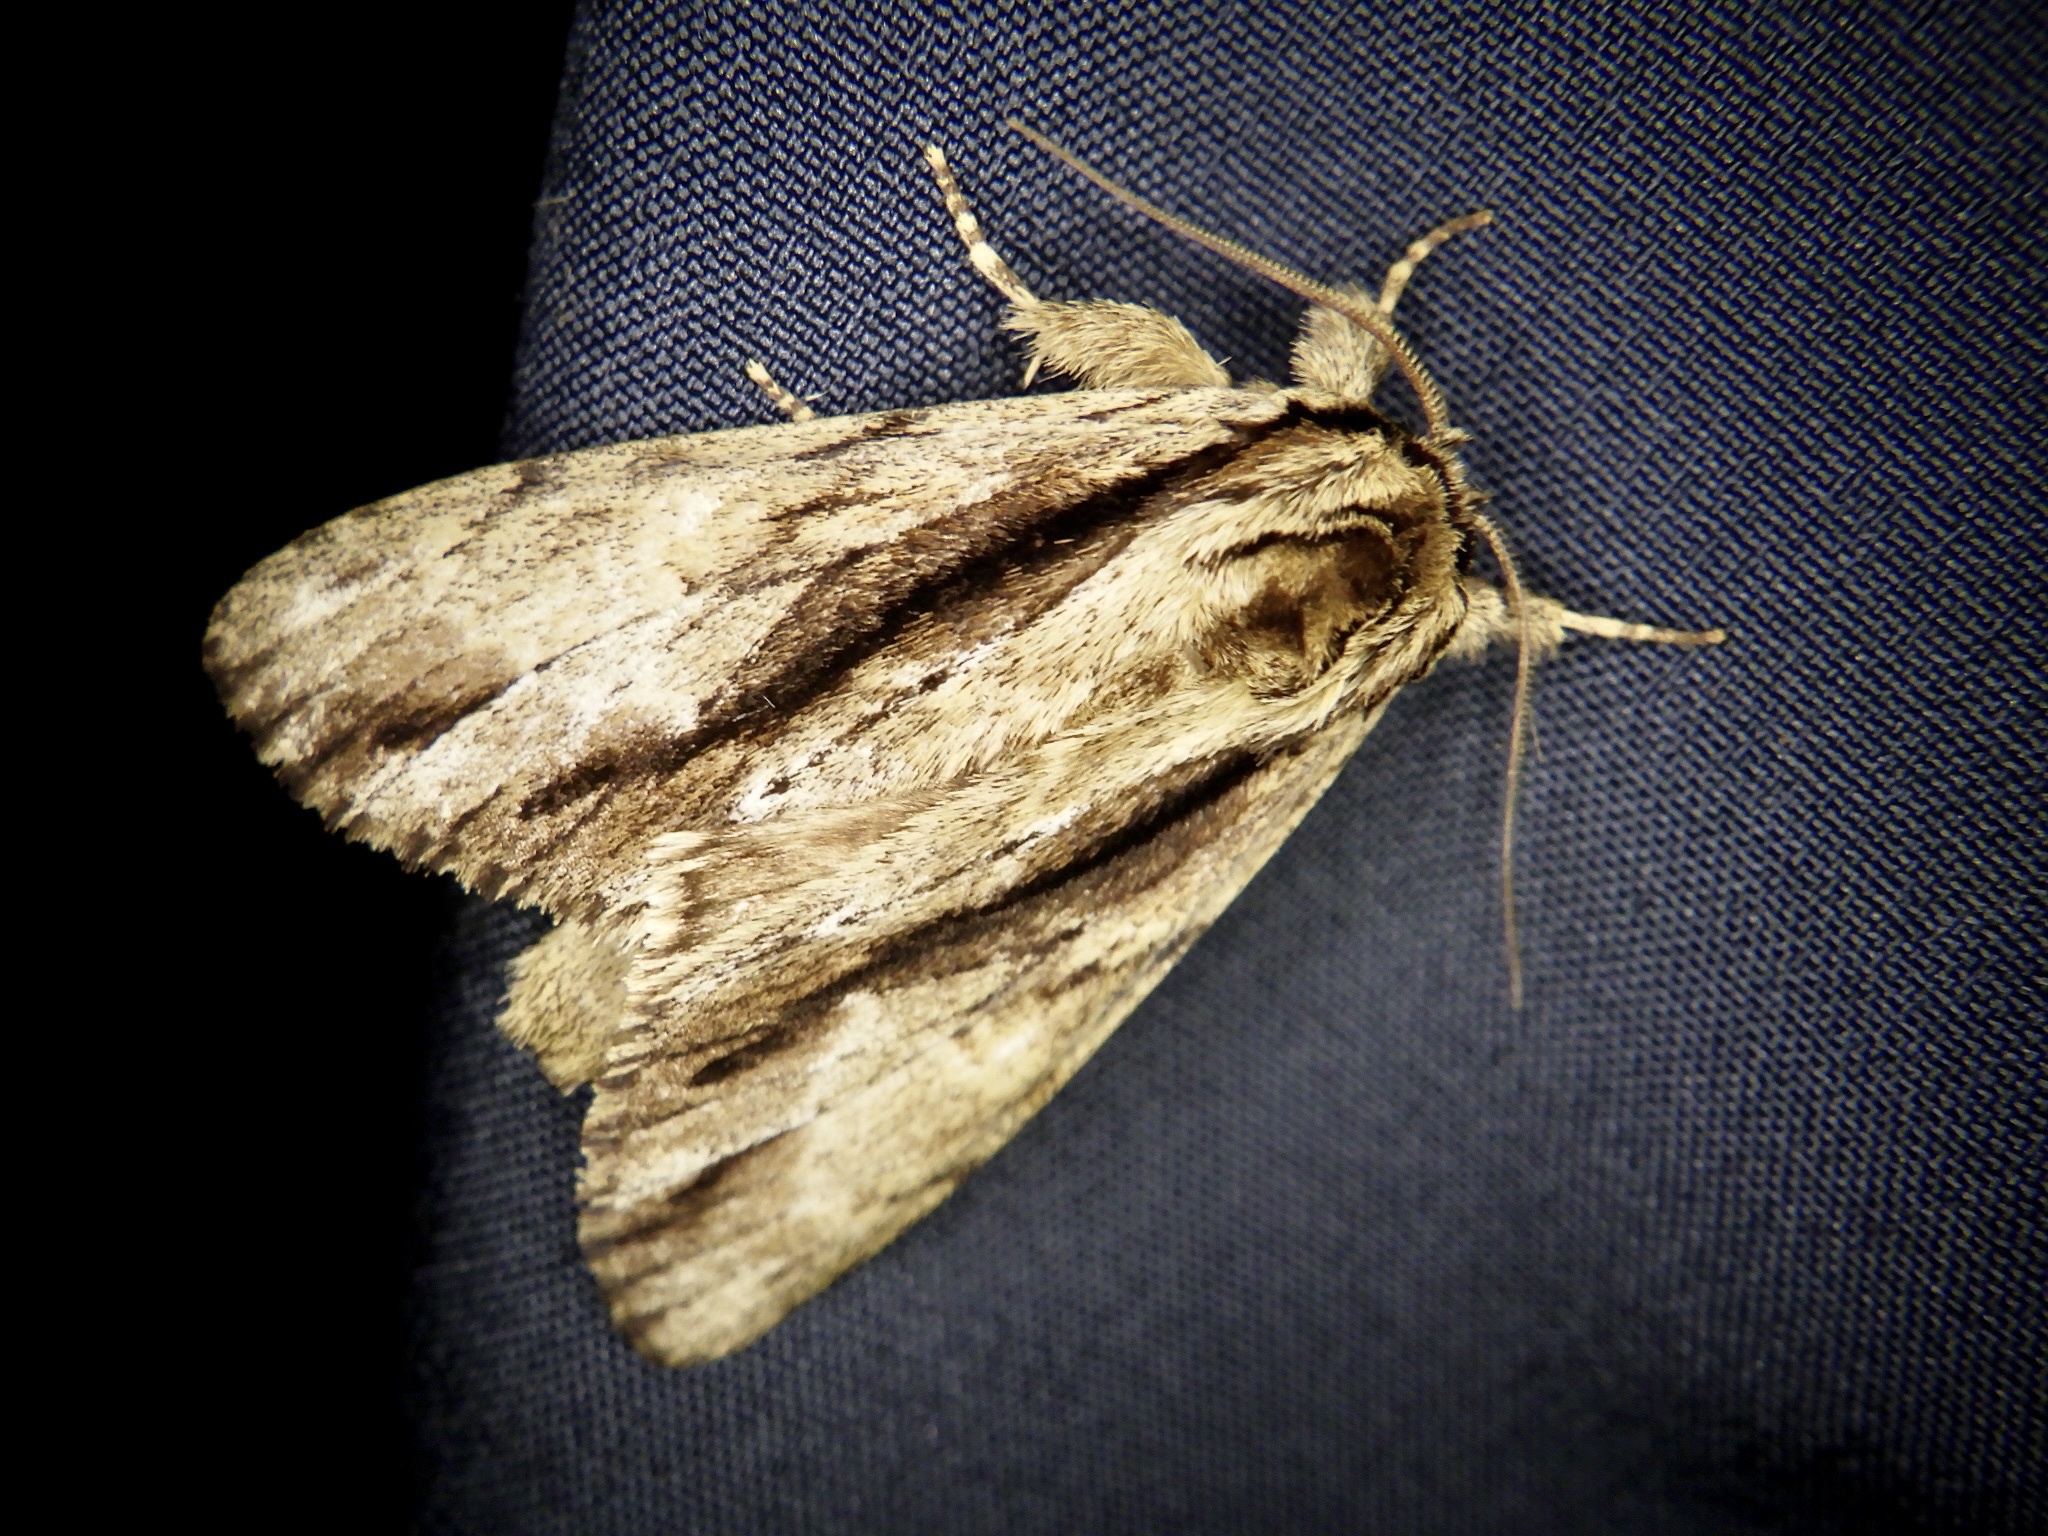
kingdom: Animalia
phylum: Arthropoda
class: Insecta
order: Lepidoptera
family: Notodontidae
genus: Shaka
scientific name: Shaka atrovittatus
